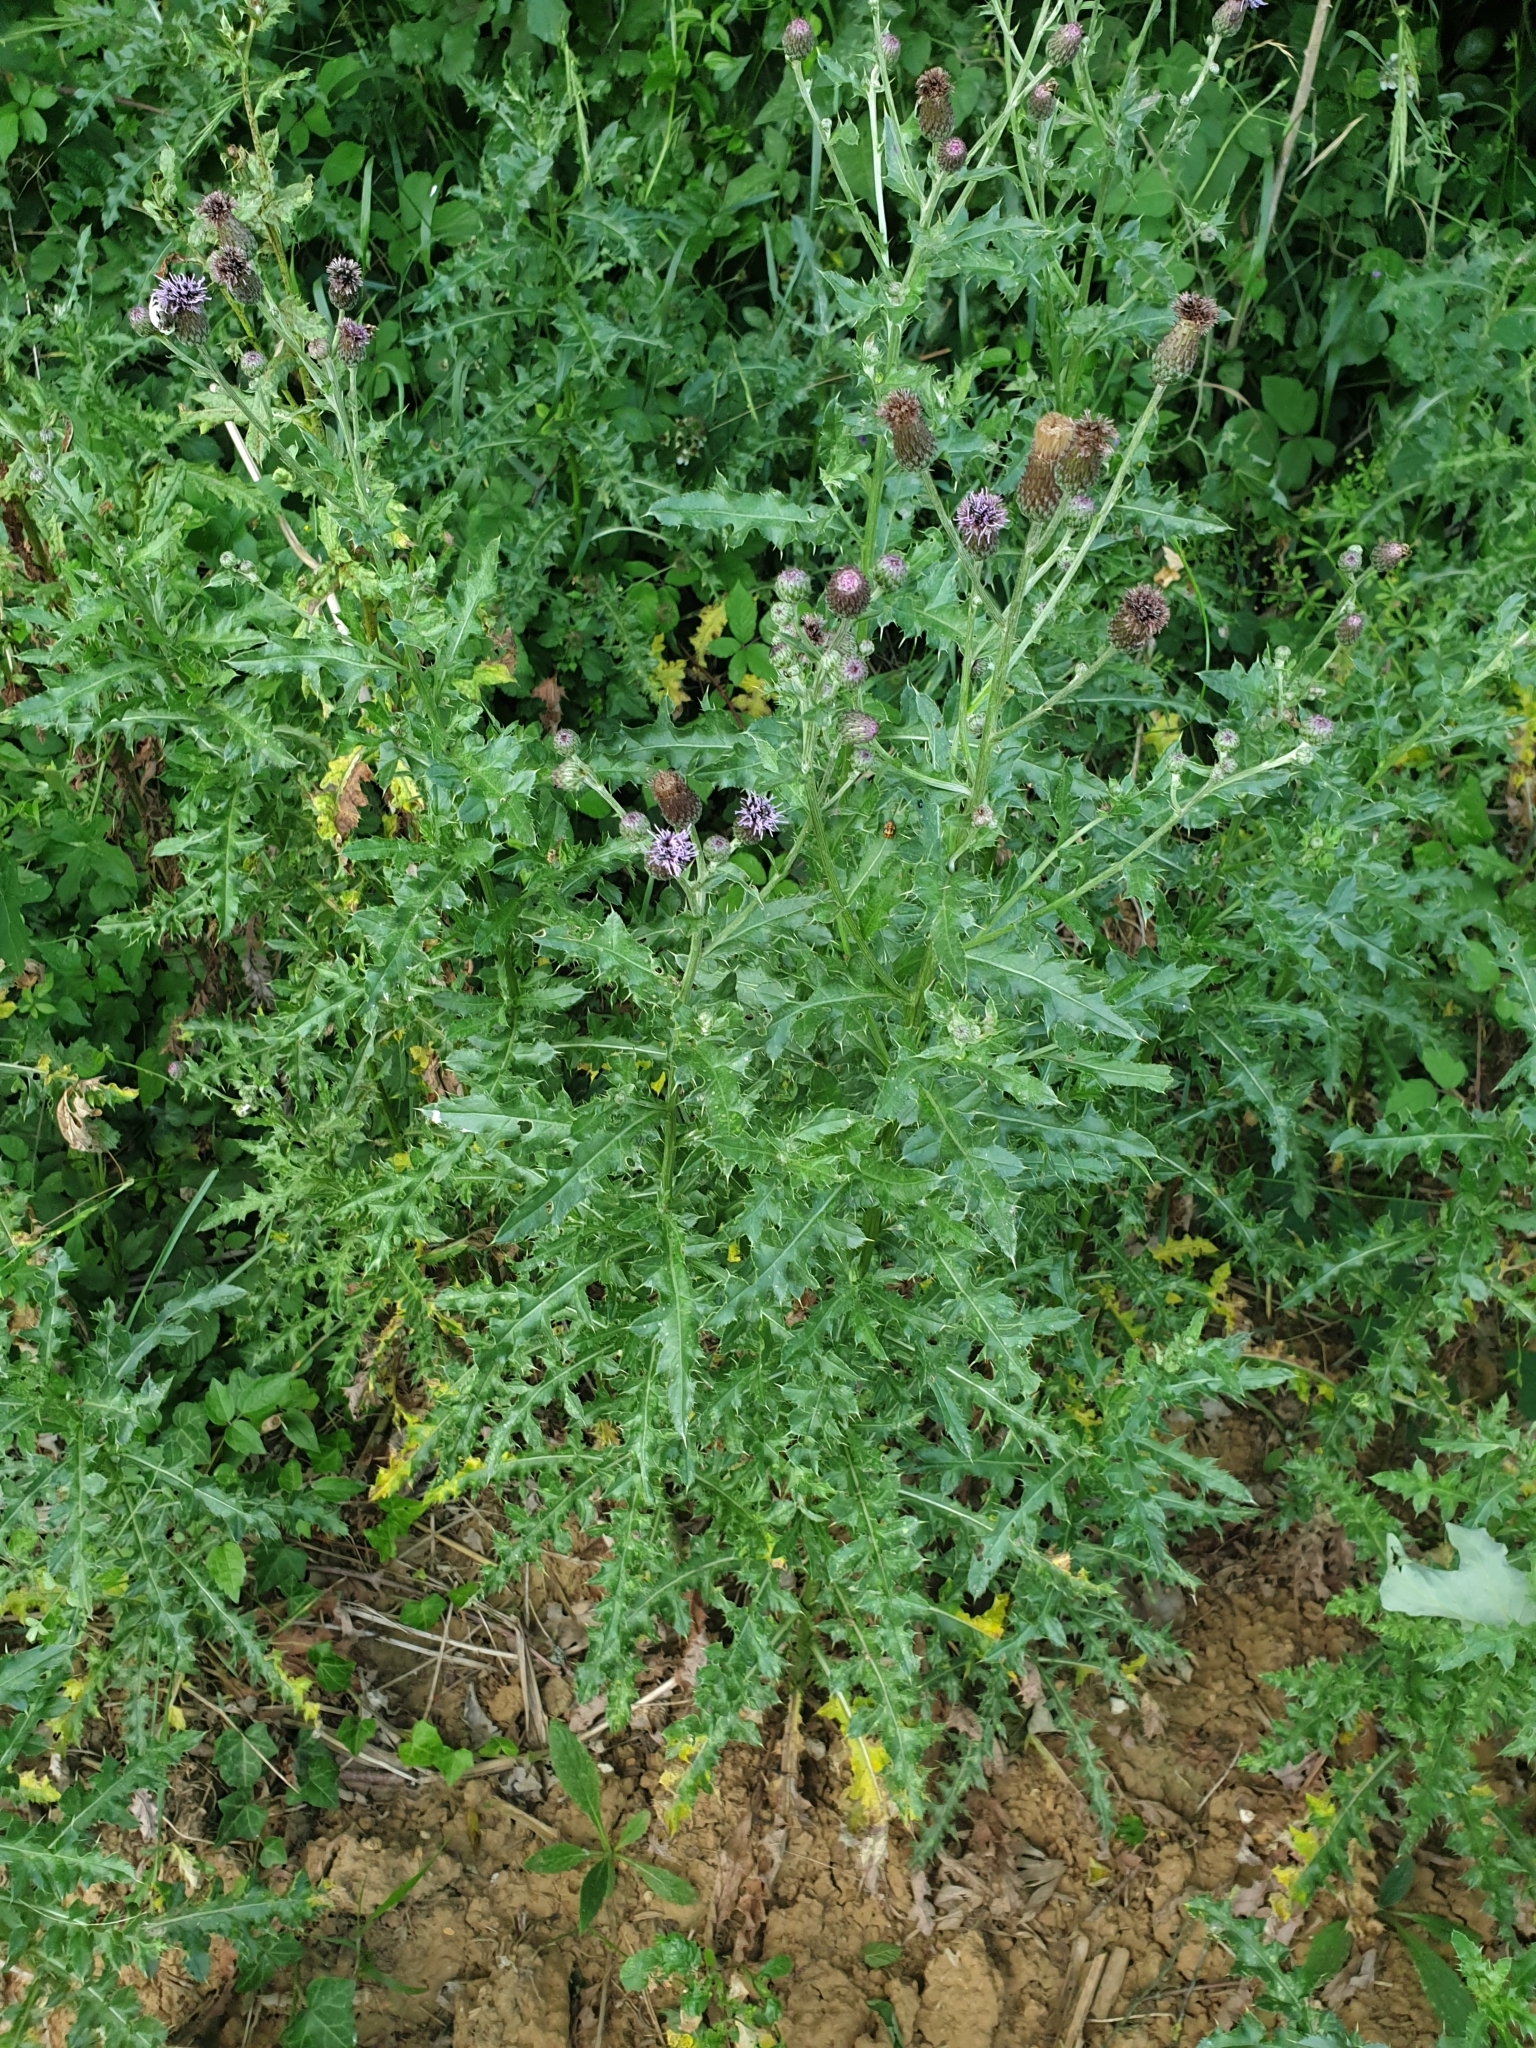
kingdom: Plantae
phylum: Tracheophyta
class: Magnoliopsida
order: Asterales
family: Asteraceae
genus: Cirsium
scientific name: Cirsium arvense
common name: Creeping thistle
